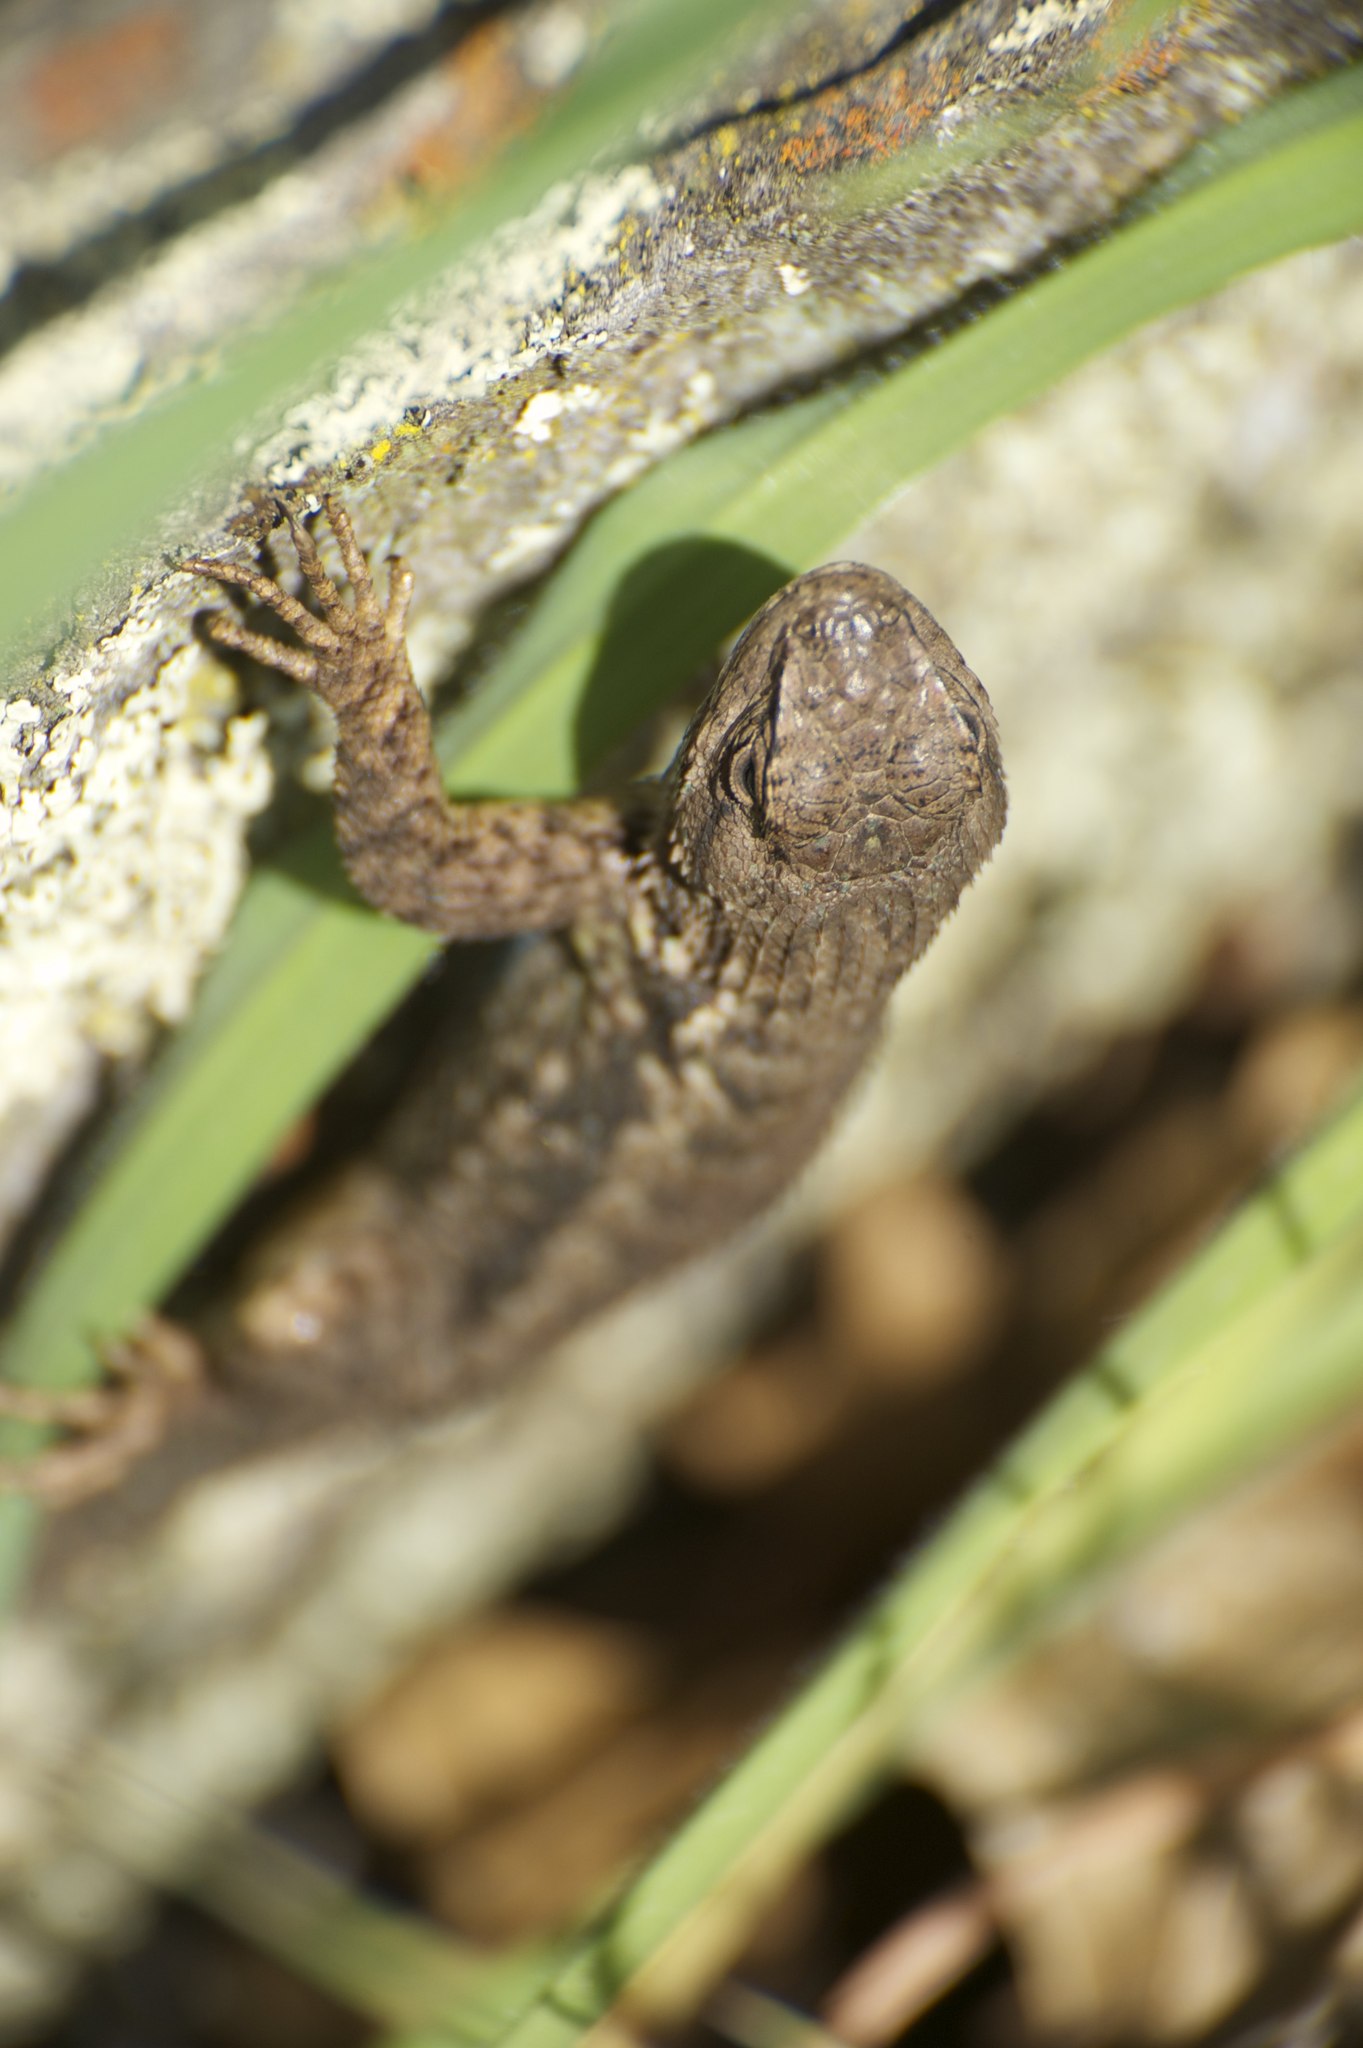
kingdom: Animalia
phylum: Chordata
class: Squamata
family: Phrynosomatidae
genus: Sceloporus
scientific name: Sceloporus occidentalis
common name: Western fence lizard
